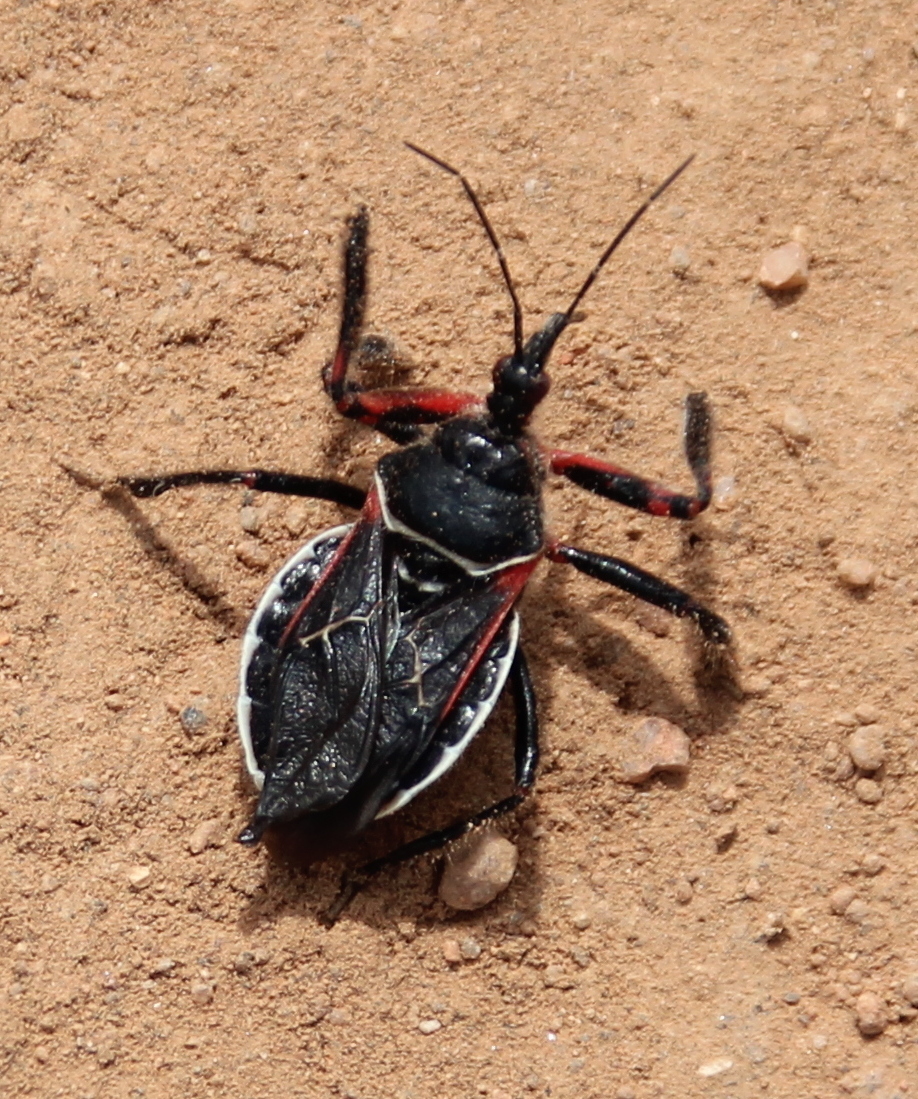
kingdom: Animalia
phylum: Arthropoda
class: Insecta
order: Hemiptera
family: Reduviidae
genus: Apiomerus
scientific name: Apiomerus californicus
